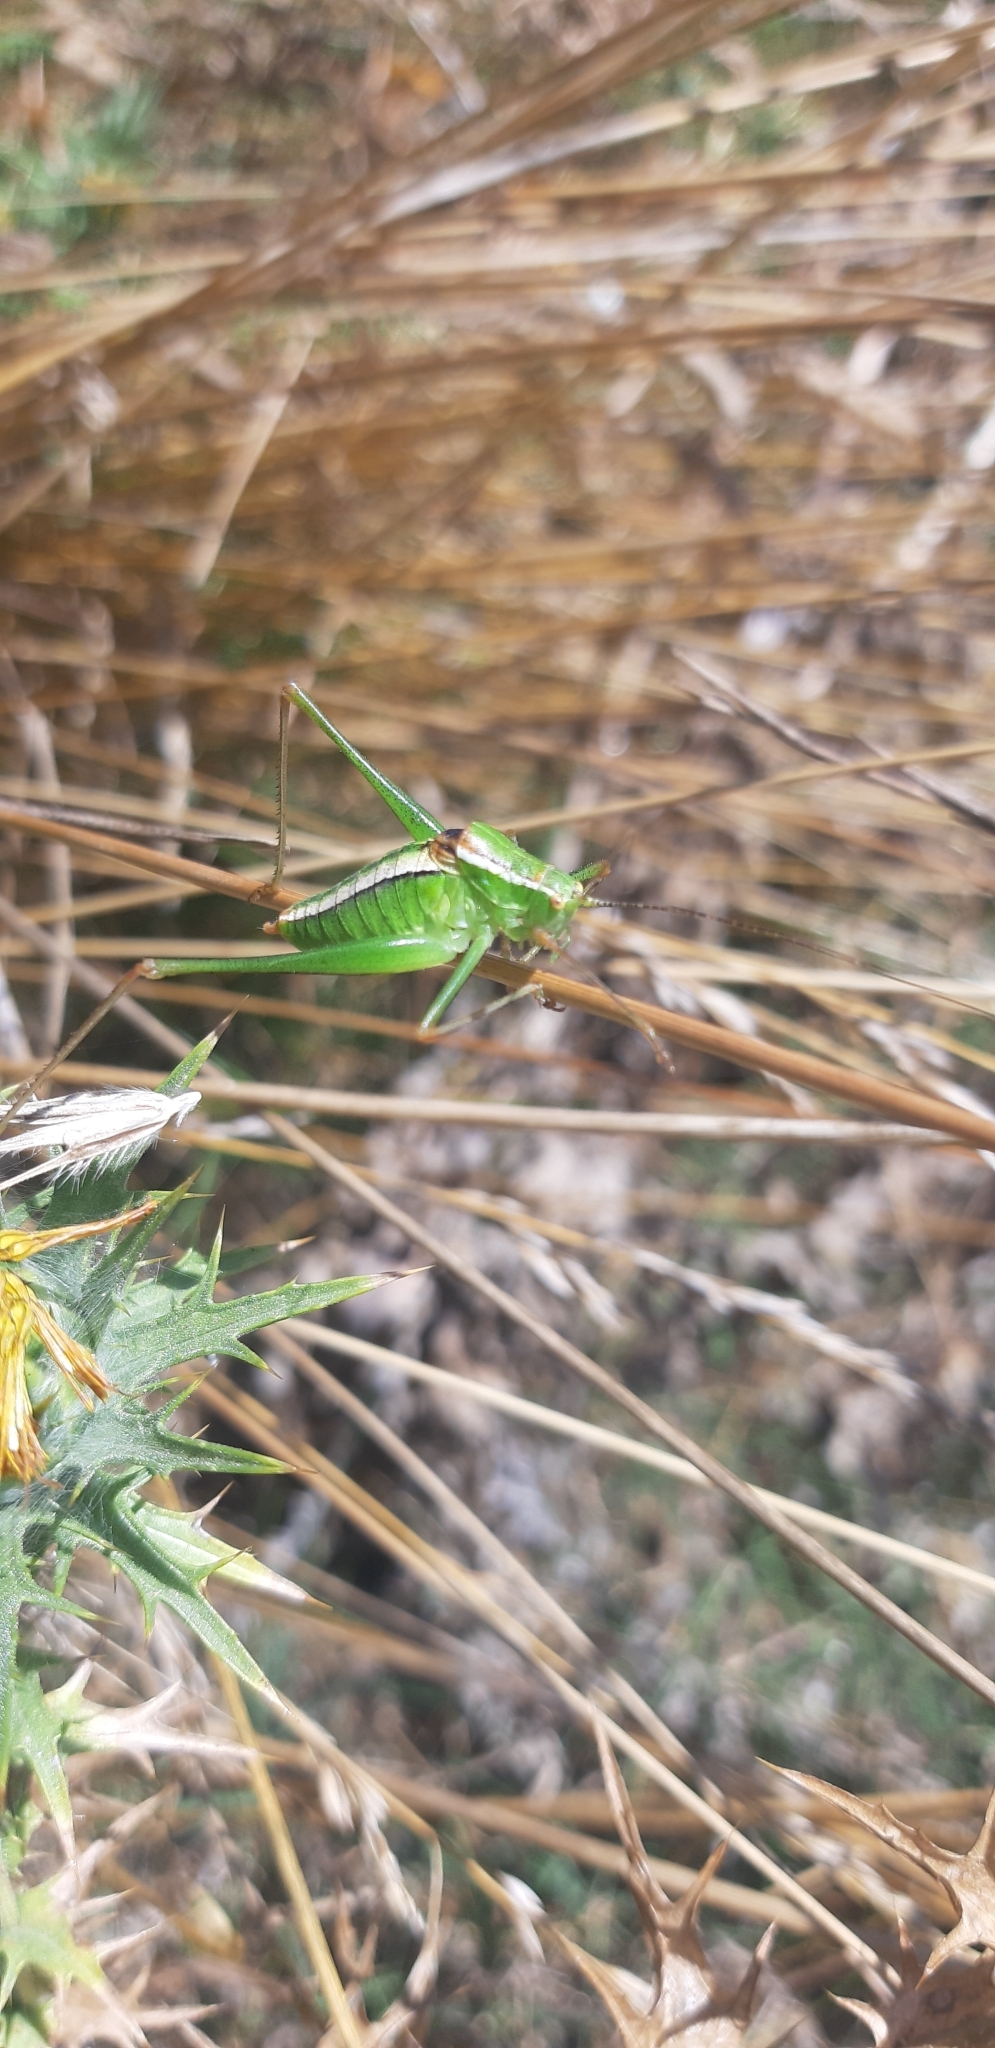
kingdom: Animalia
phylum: Arthropoda
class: Insecta
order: Orthoptera
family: Tettigoniidae
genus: Poecilimon
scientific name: Poecilimon superbus
